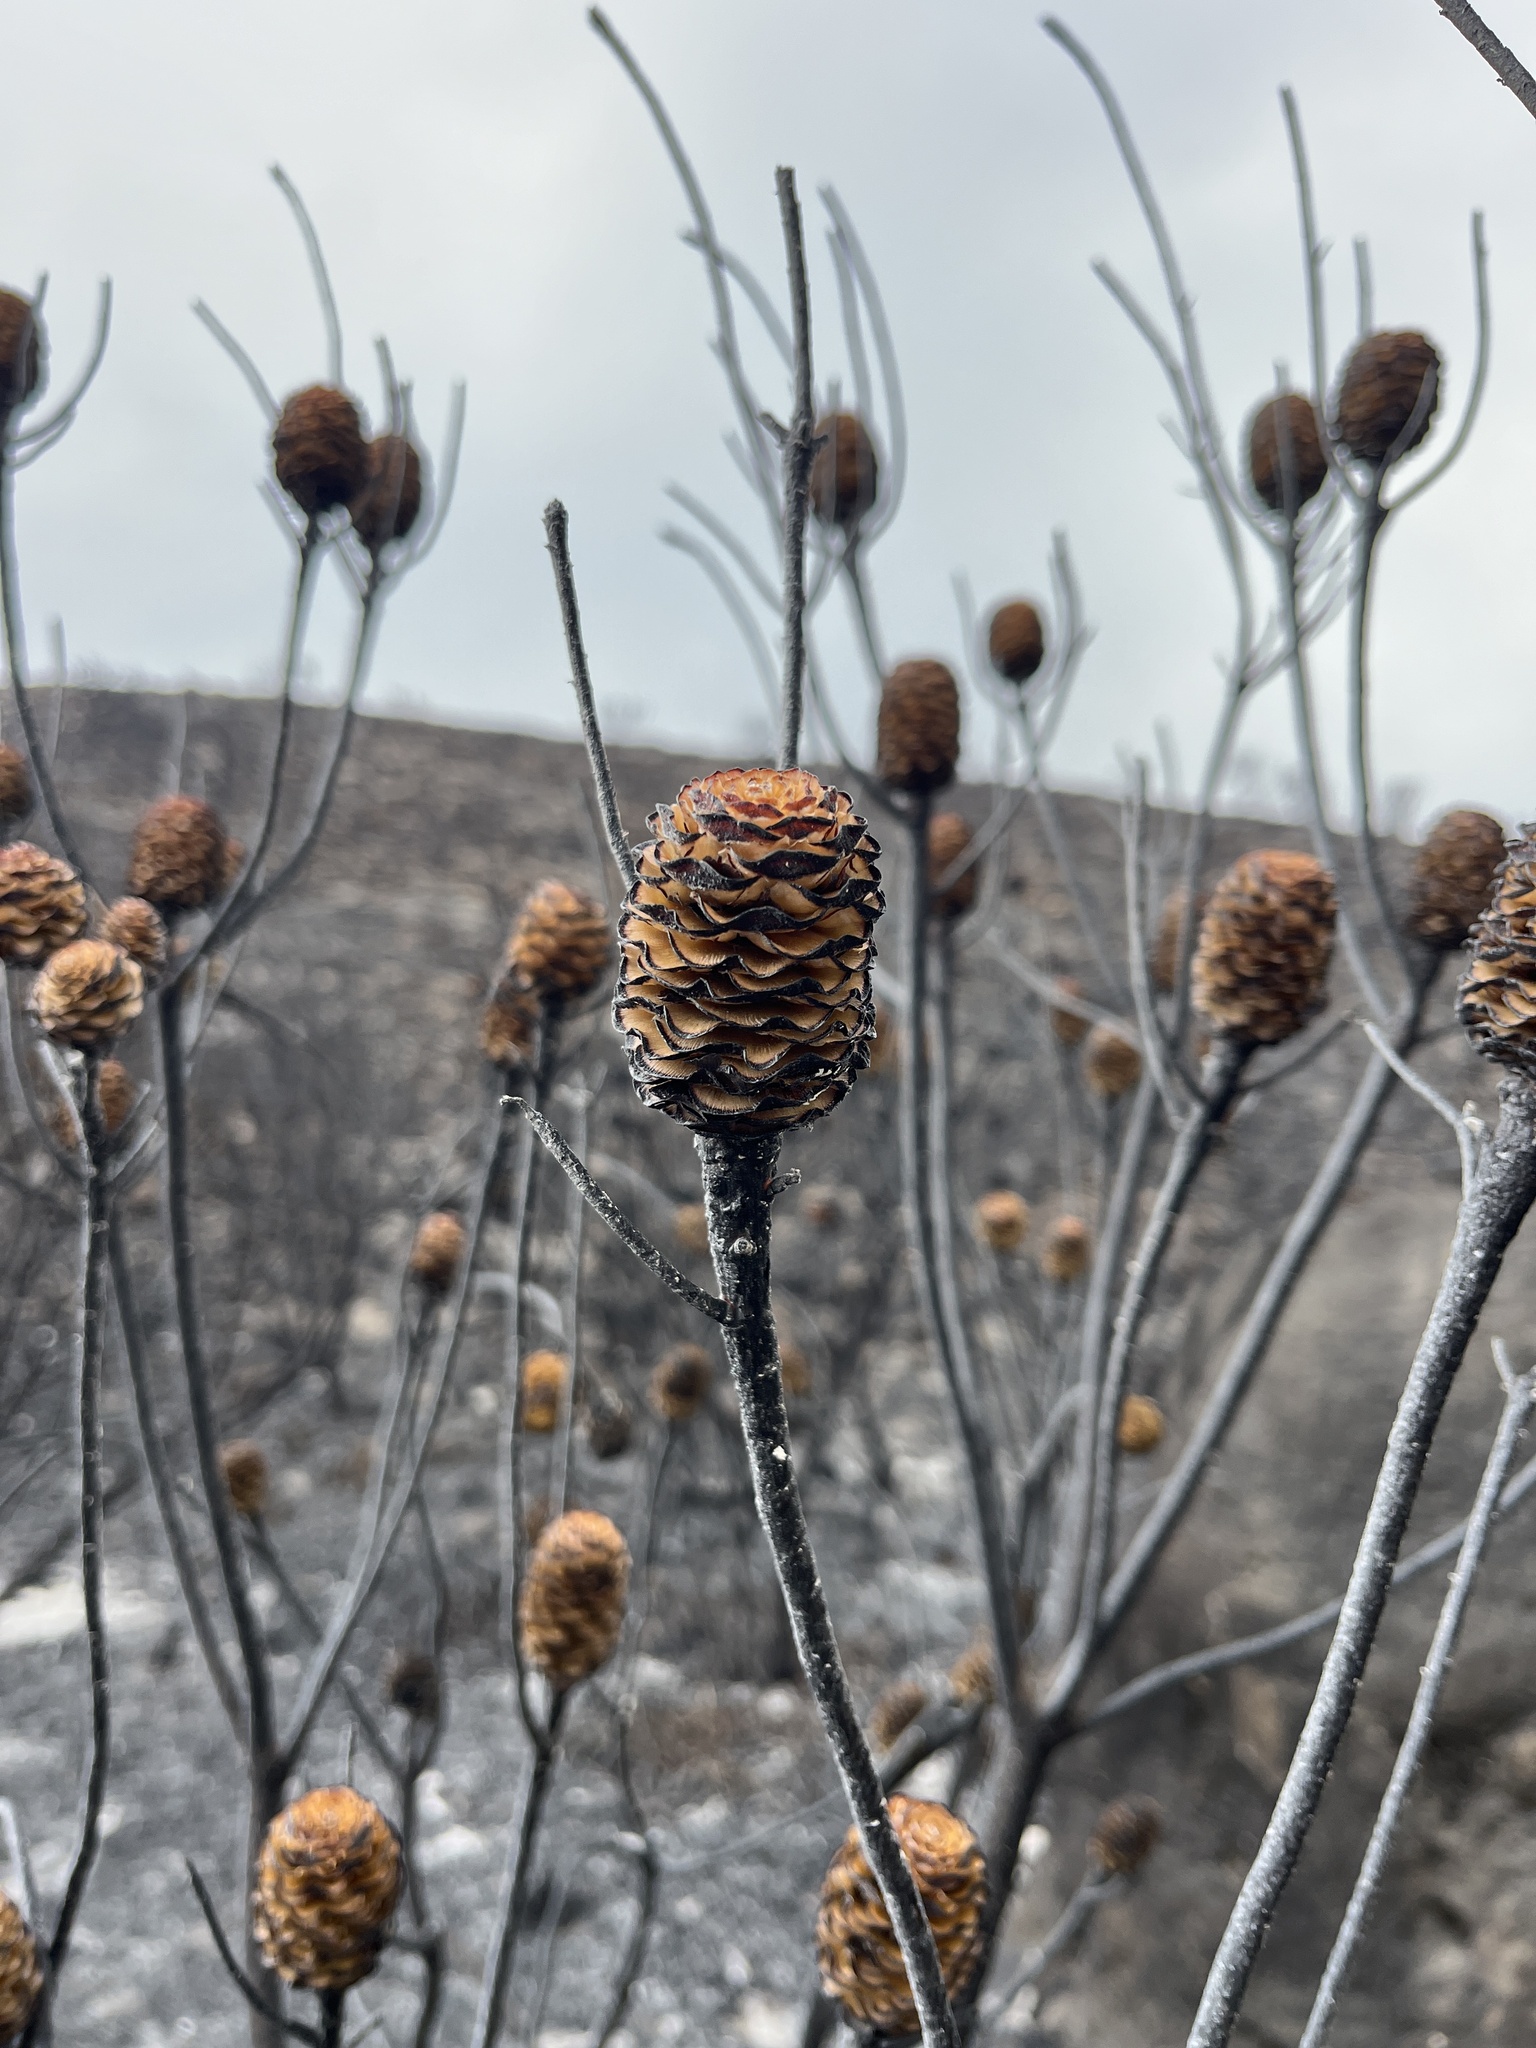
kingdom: Plantae
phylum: Tracheophyta
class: Magnoliopsida
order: Proteales
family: Proteaceae
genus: Leucadendron
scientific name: Leucadendron meridianum
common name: Limestone conebush
